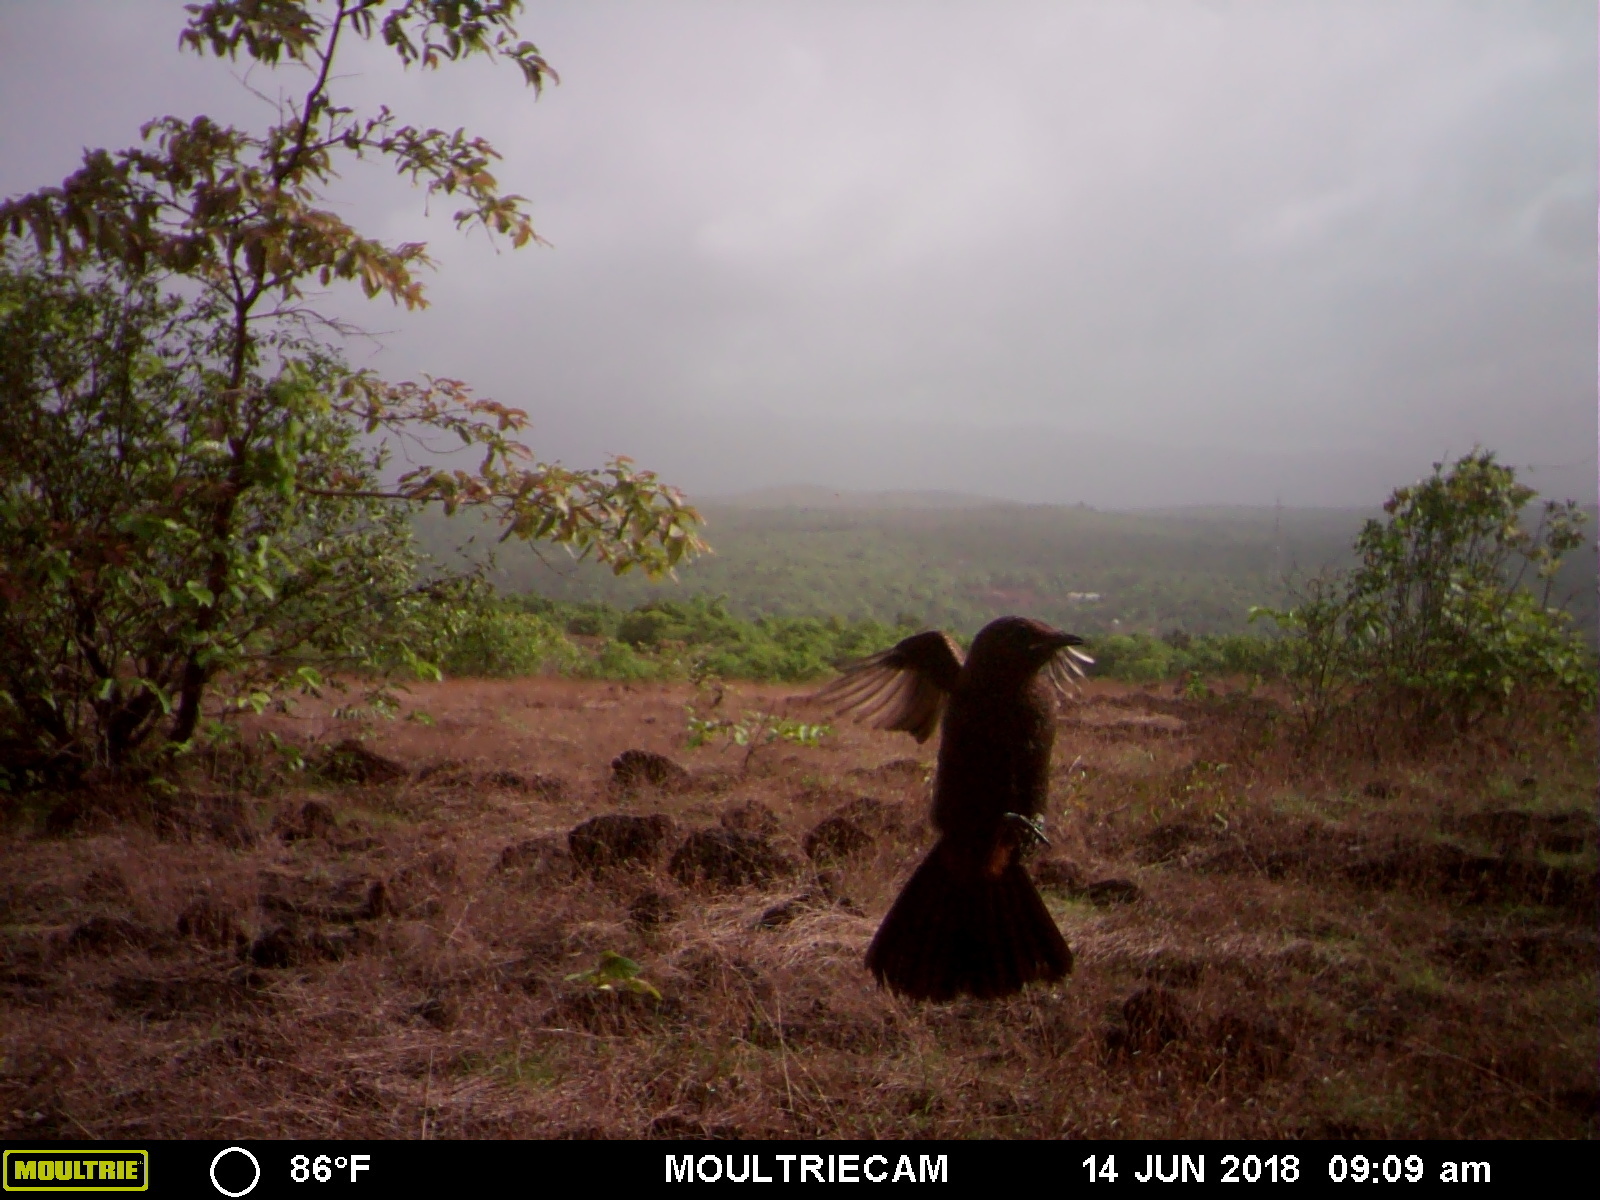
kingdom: Animalia
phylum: Chordata
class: Aves
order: Passeriformes
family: Muscicapidae
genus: Saxicoloides
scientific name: Saxicoloides fulicatus
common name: Indian robin
